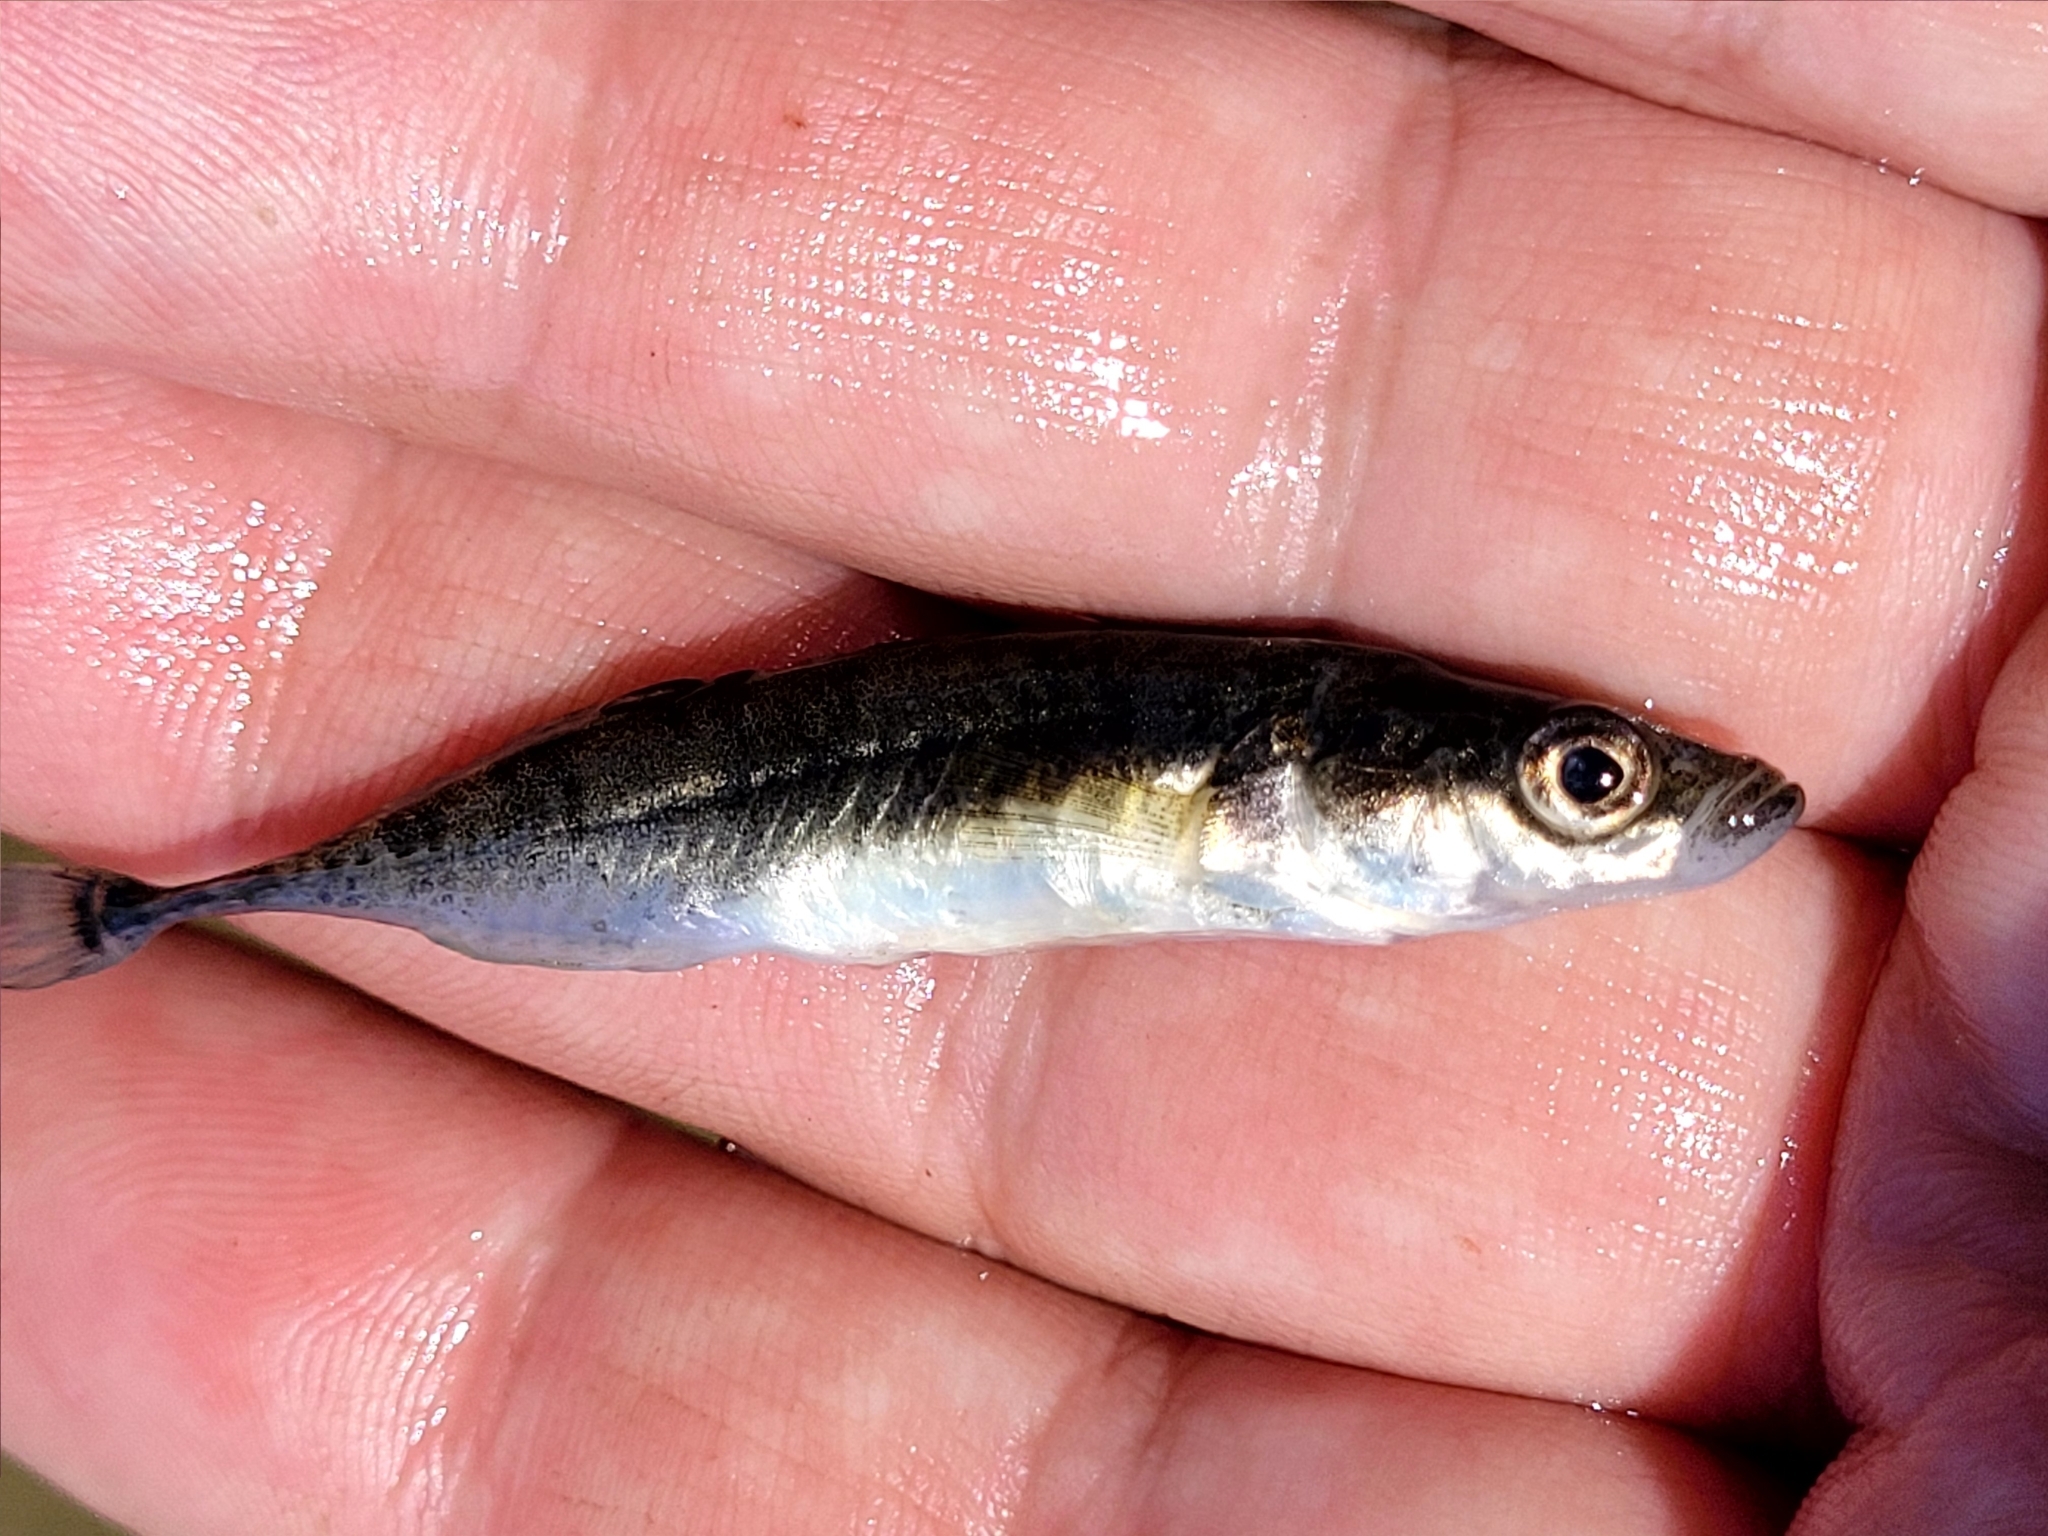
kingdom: Animalia
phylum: Chordata
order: Gasterosteiformes
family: Gasterosteidae
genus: Culaea
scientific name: Culaea inconstans
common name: Brook stickleback
